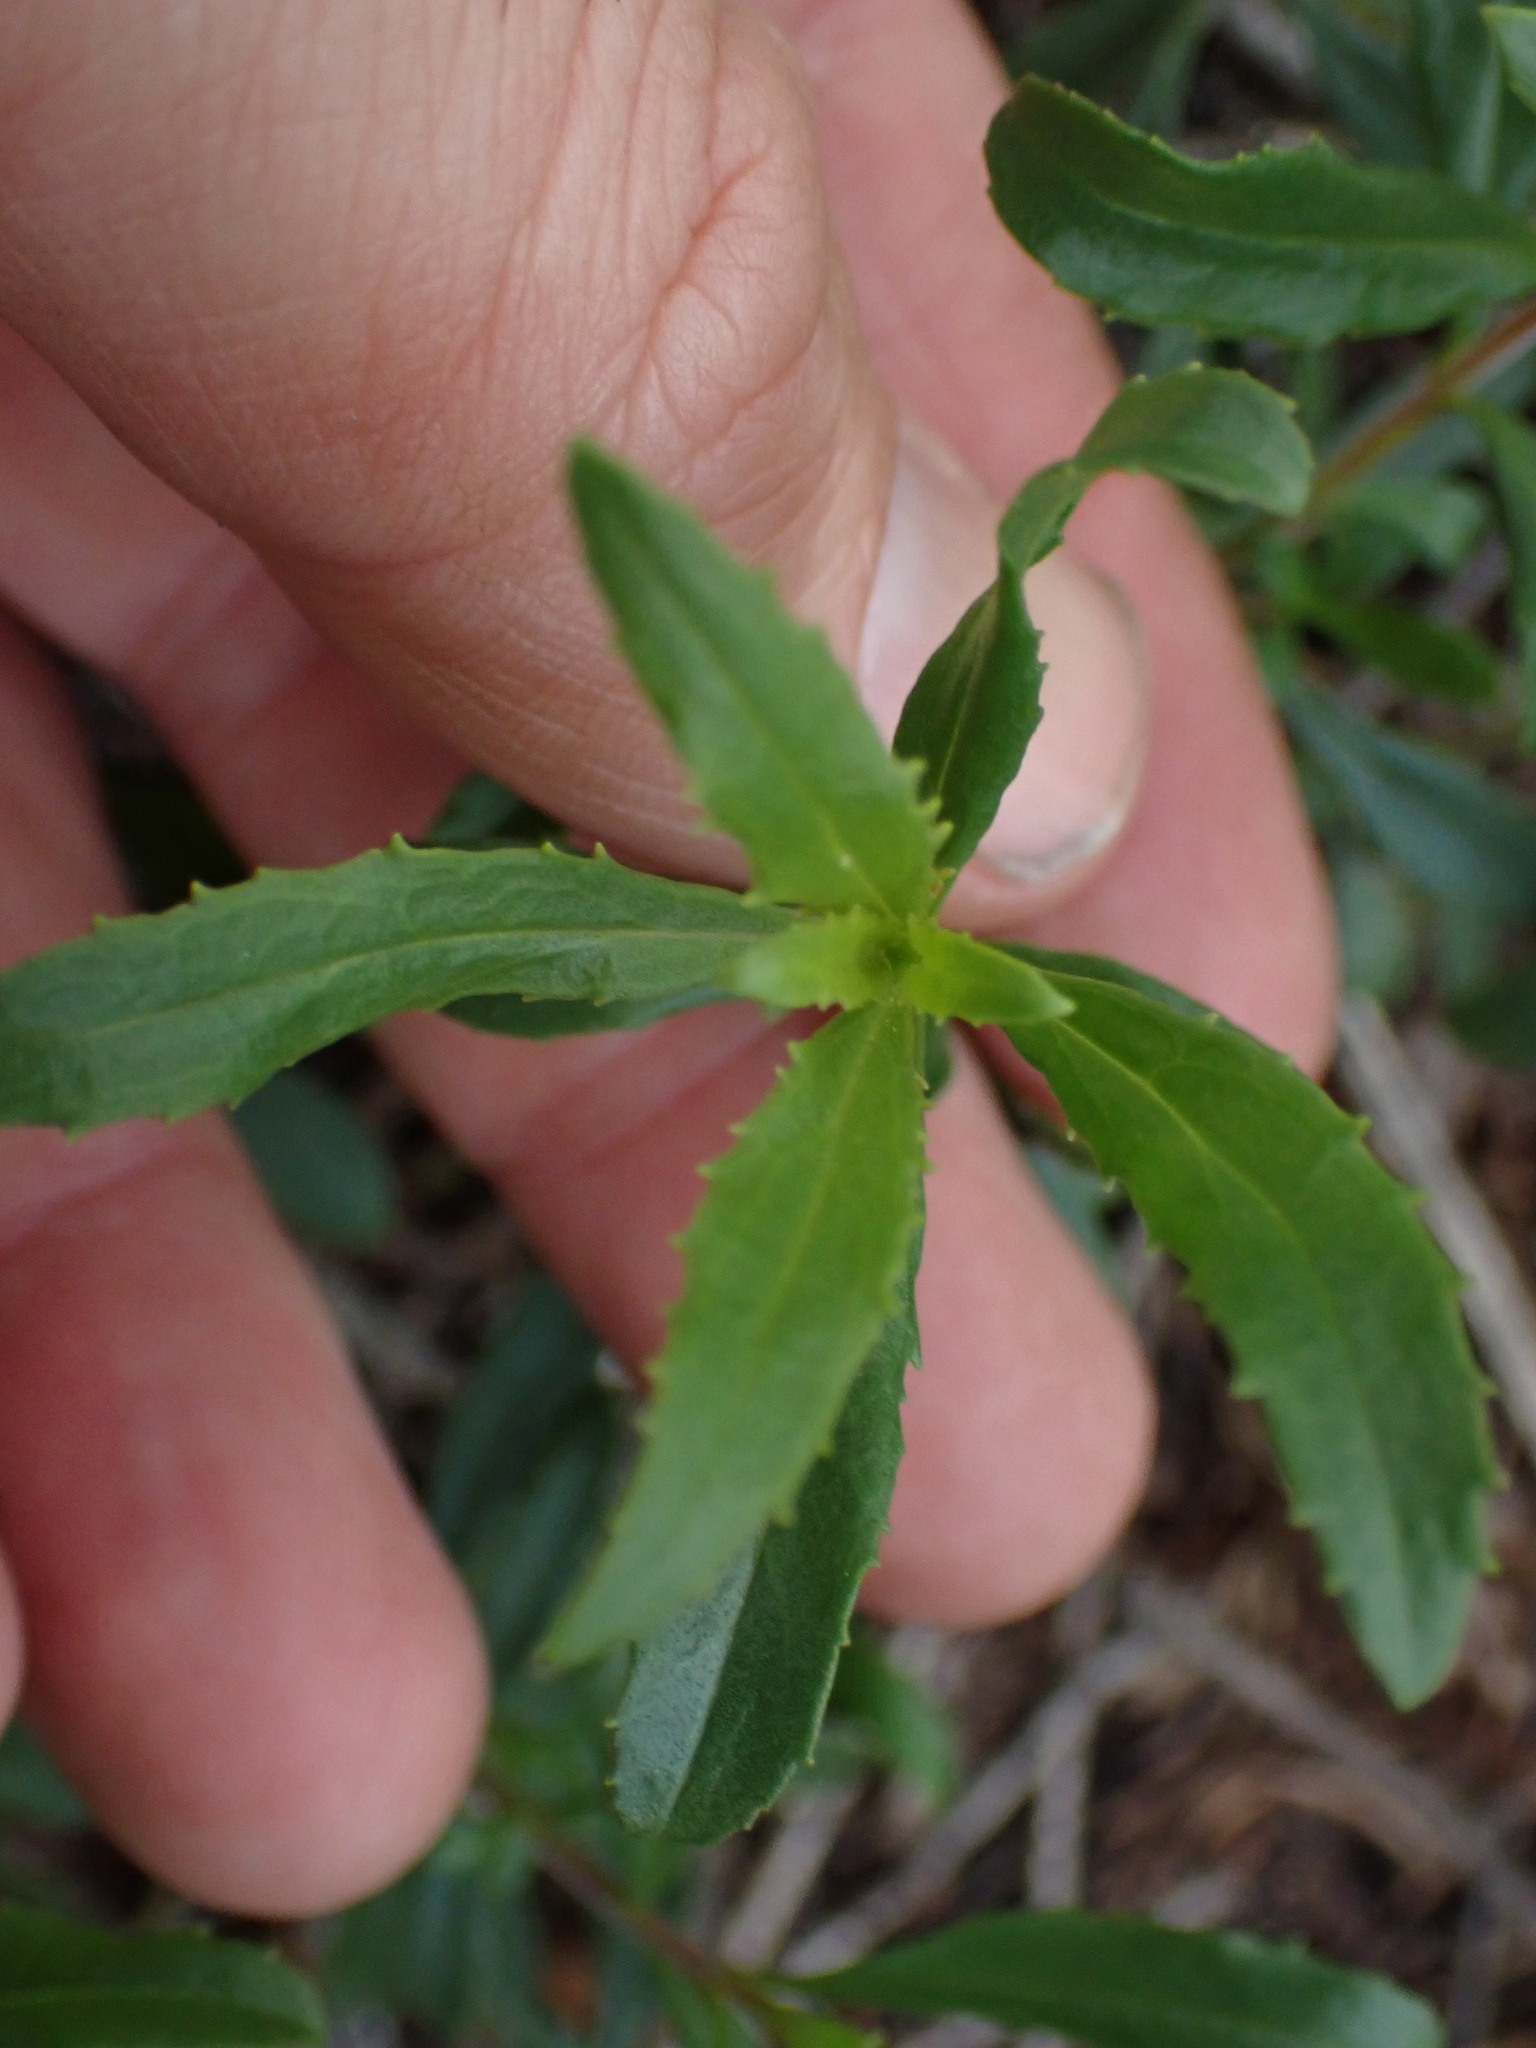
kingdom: Plantae
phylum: Tracheophyta
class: Magnoliopsida
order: Lamiales
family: Plantaginaceae
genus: Penstemon
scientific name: Penstemon fruticosus
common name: Bush penstemon
